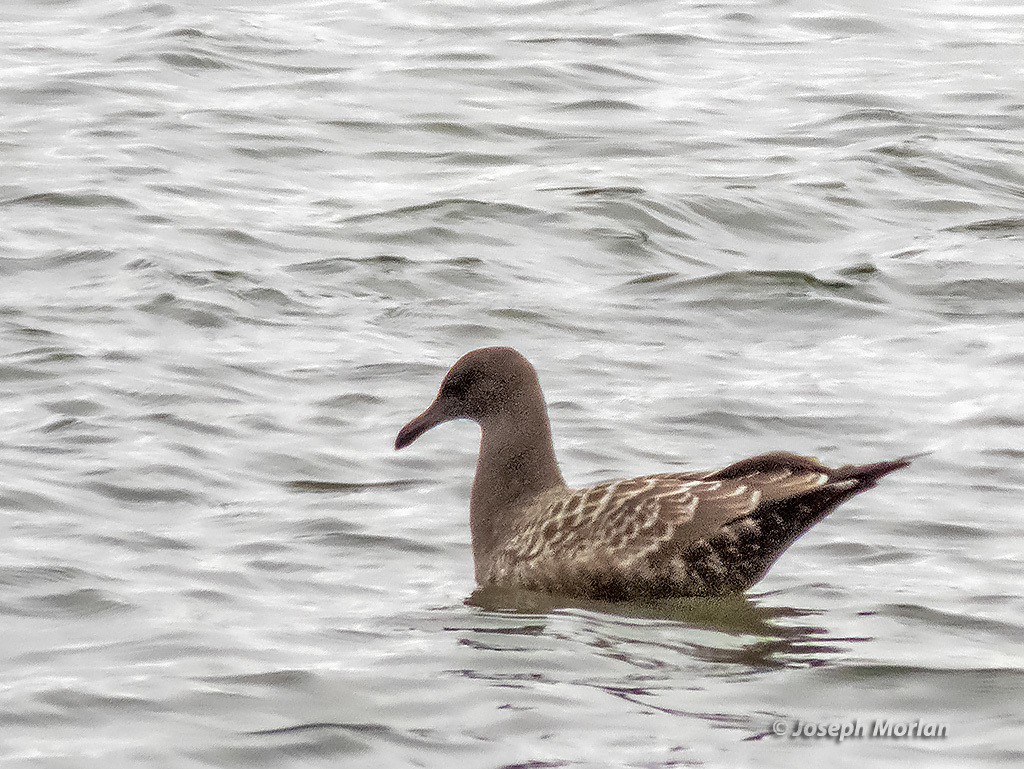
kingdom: Animalia
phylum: Chordata
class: Aves
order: Charadriiformes
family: Laridae
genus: Larus
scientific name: Larus heermanni
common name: Heermann's gull
